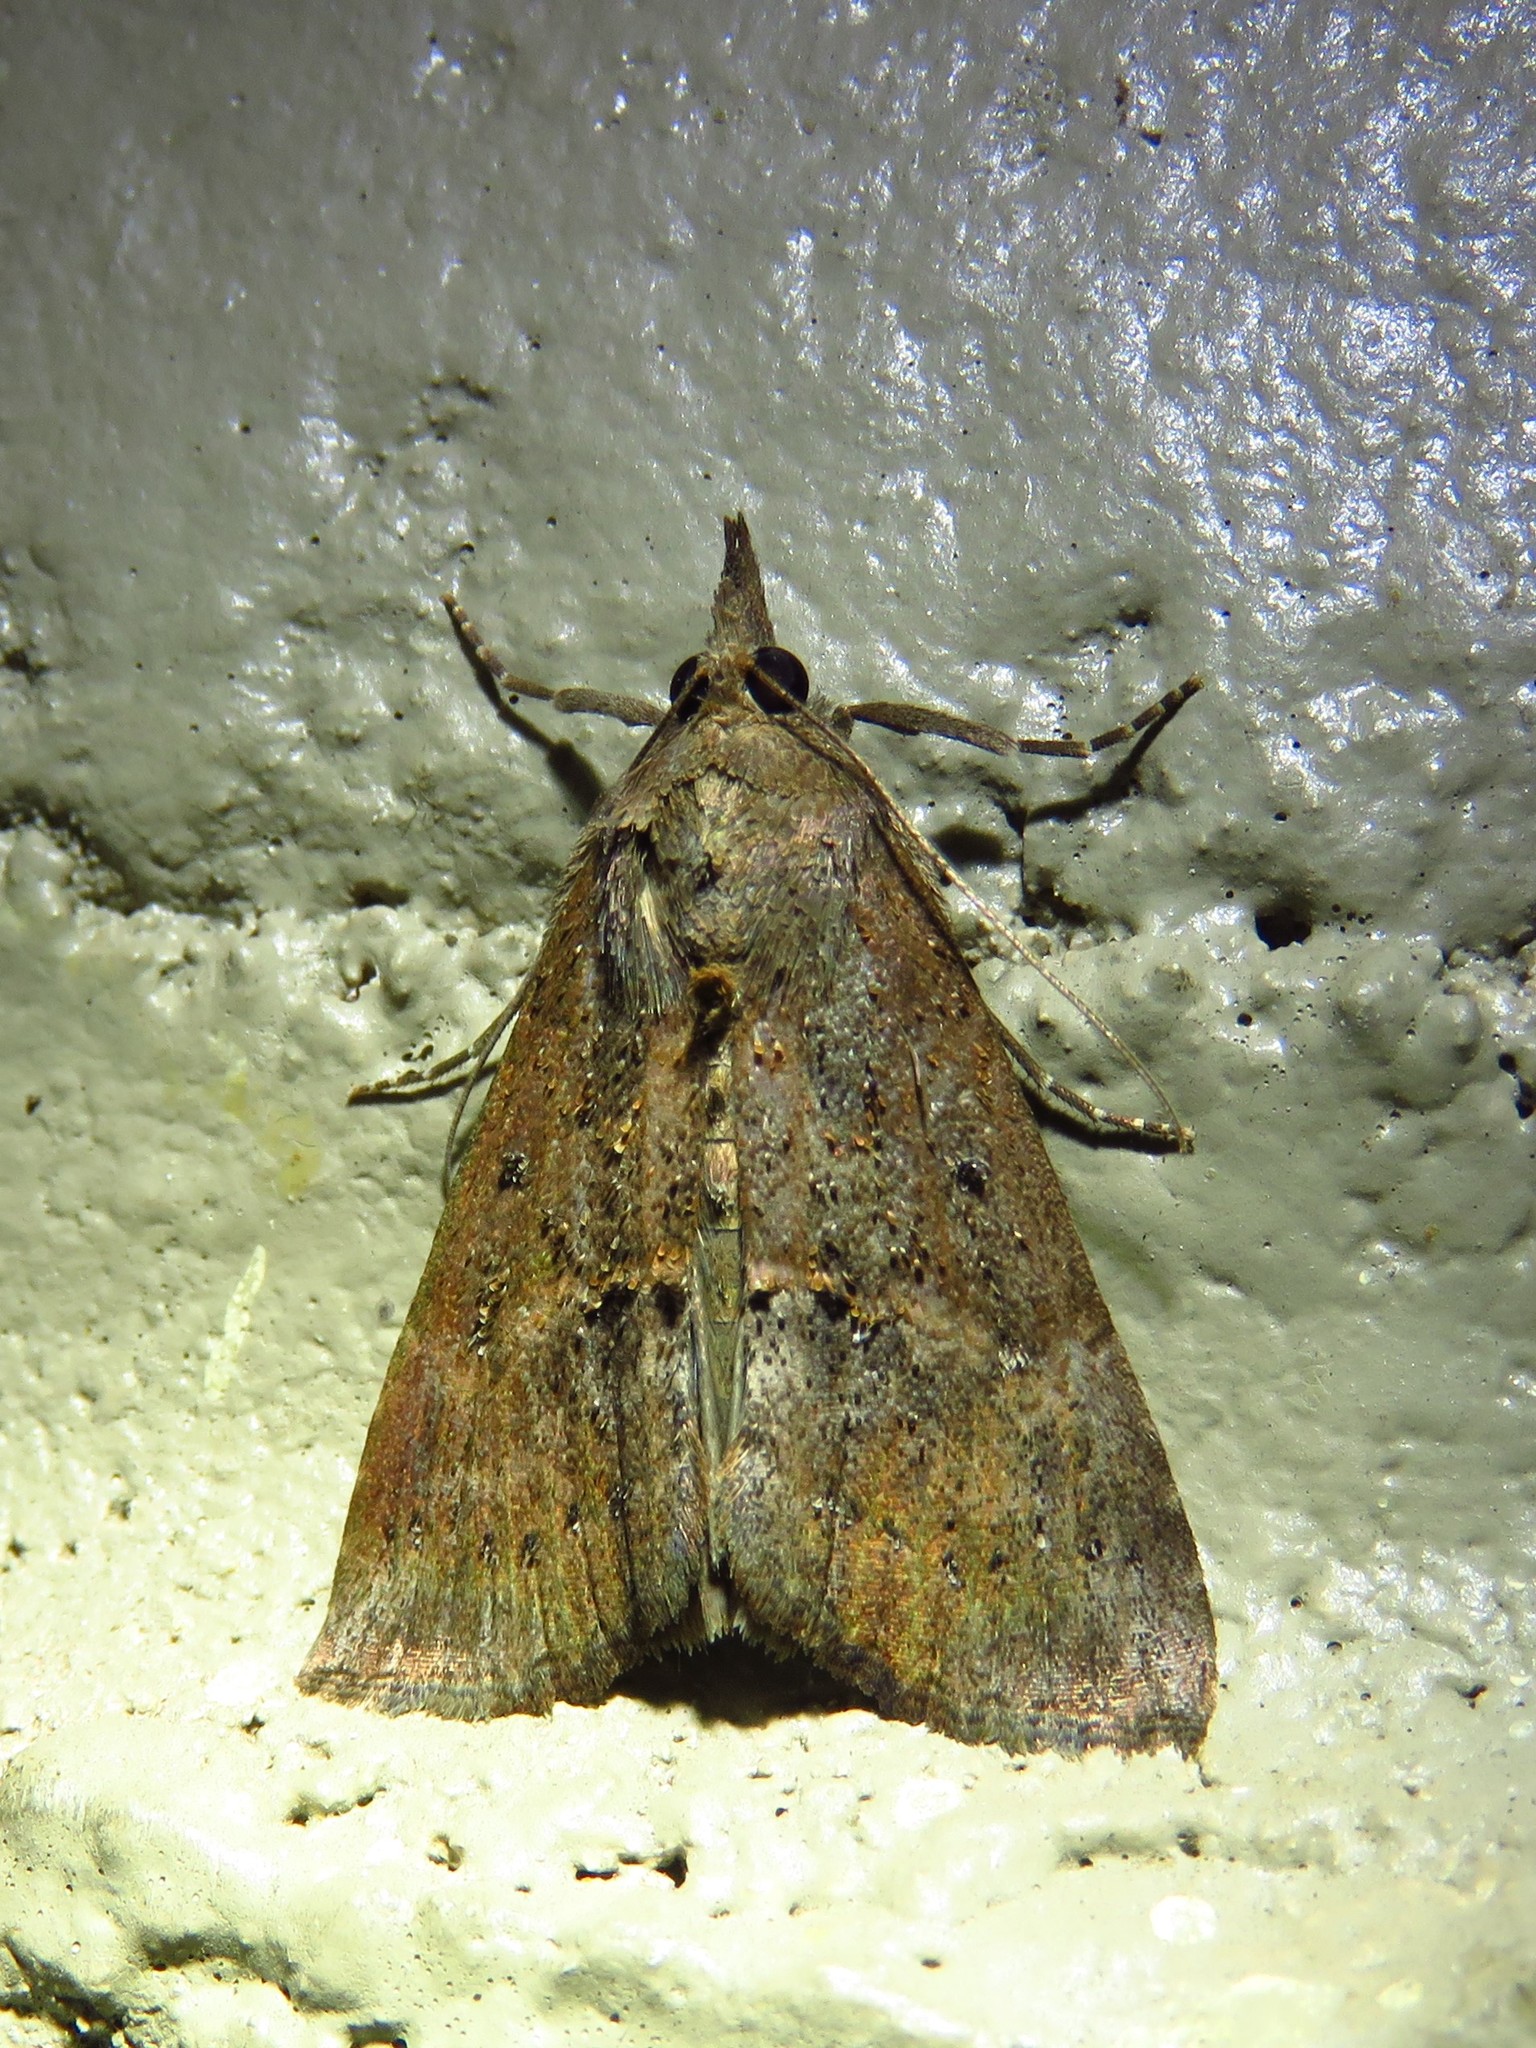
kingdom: Animalia
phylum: Arthropoda
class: Insecta
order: Lepidoptera
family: Erebidae
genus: Hypena
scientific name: Hypena scabra
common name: Green cloverworm
